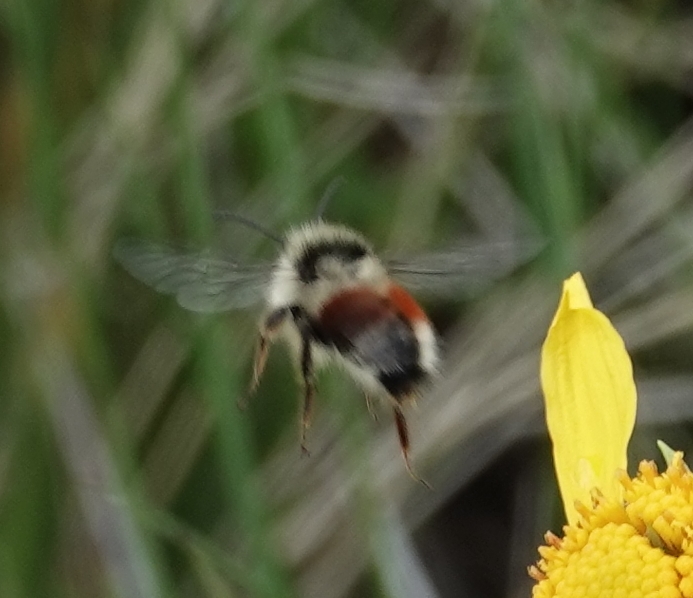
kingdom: Animalia
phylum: Arthropoda
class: Insecta
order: Hymenoptera
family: Apidae
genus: Bombus
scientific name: Bombus sylvicola
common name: Forest bumble bee
